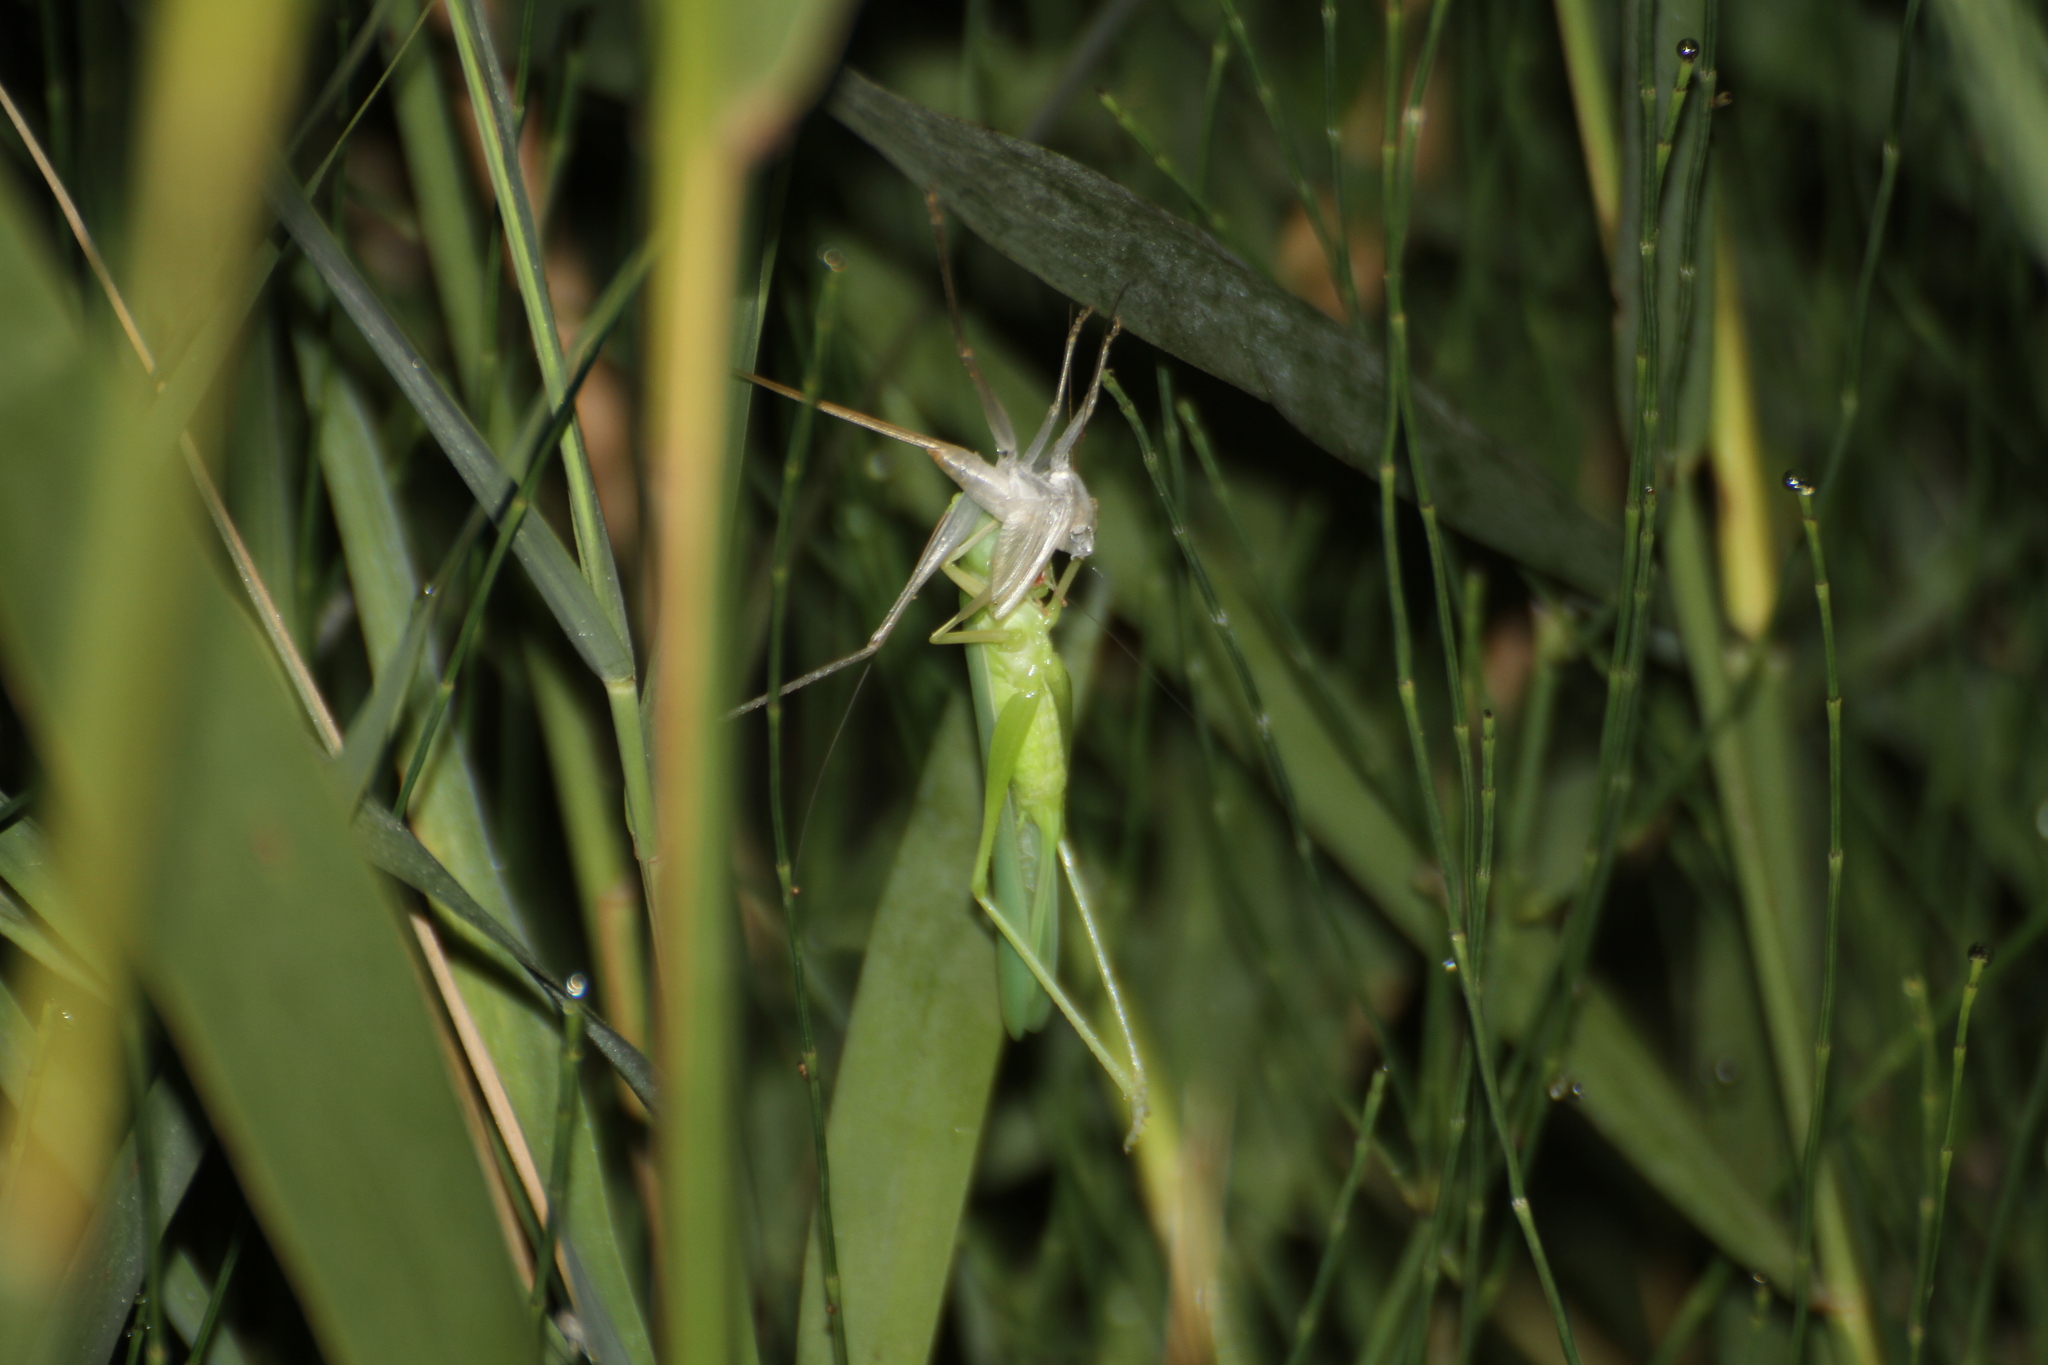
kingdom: Animalia
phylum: Arthropoda
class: Insecta
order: Orthoptera
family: Tettigoniidae
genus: Ruspolia
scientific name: Ruspolia nitidula
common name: Large conehead
